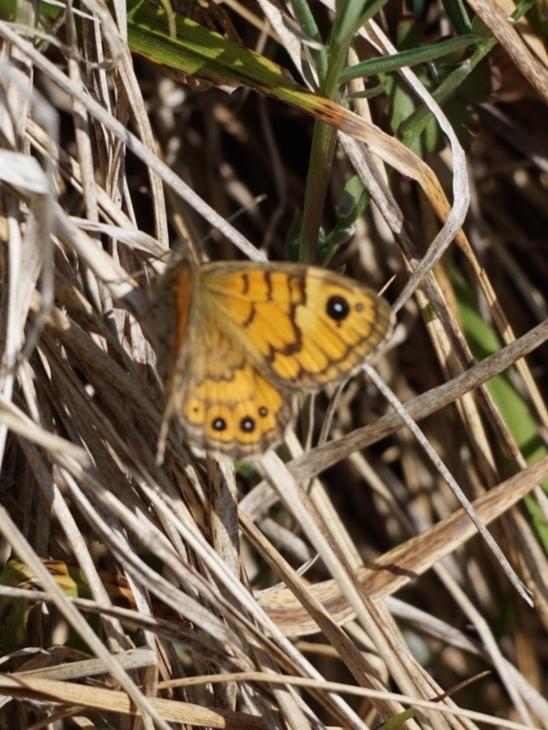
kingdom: Animalia
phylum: Arthropoda
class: Insecta
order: Lepidoptera
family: Nymphalidae
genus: Pararge
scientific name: Pararge Lasiommata megera
